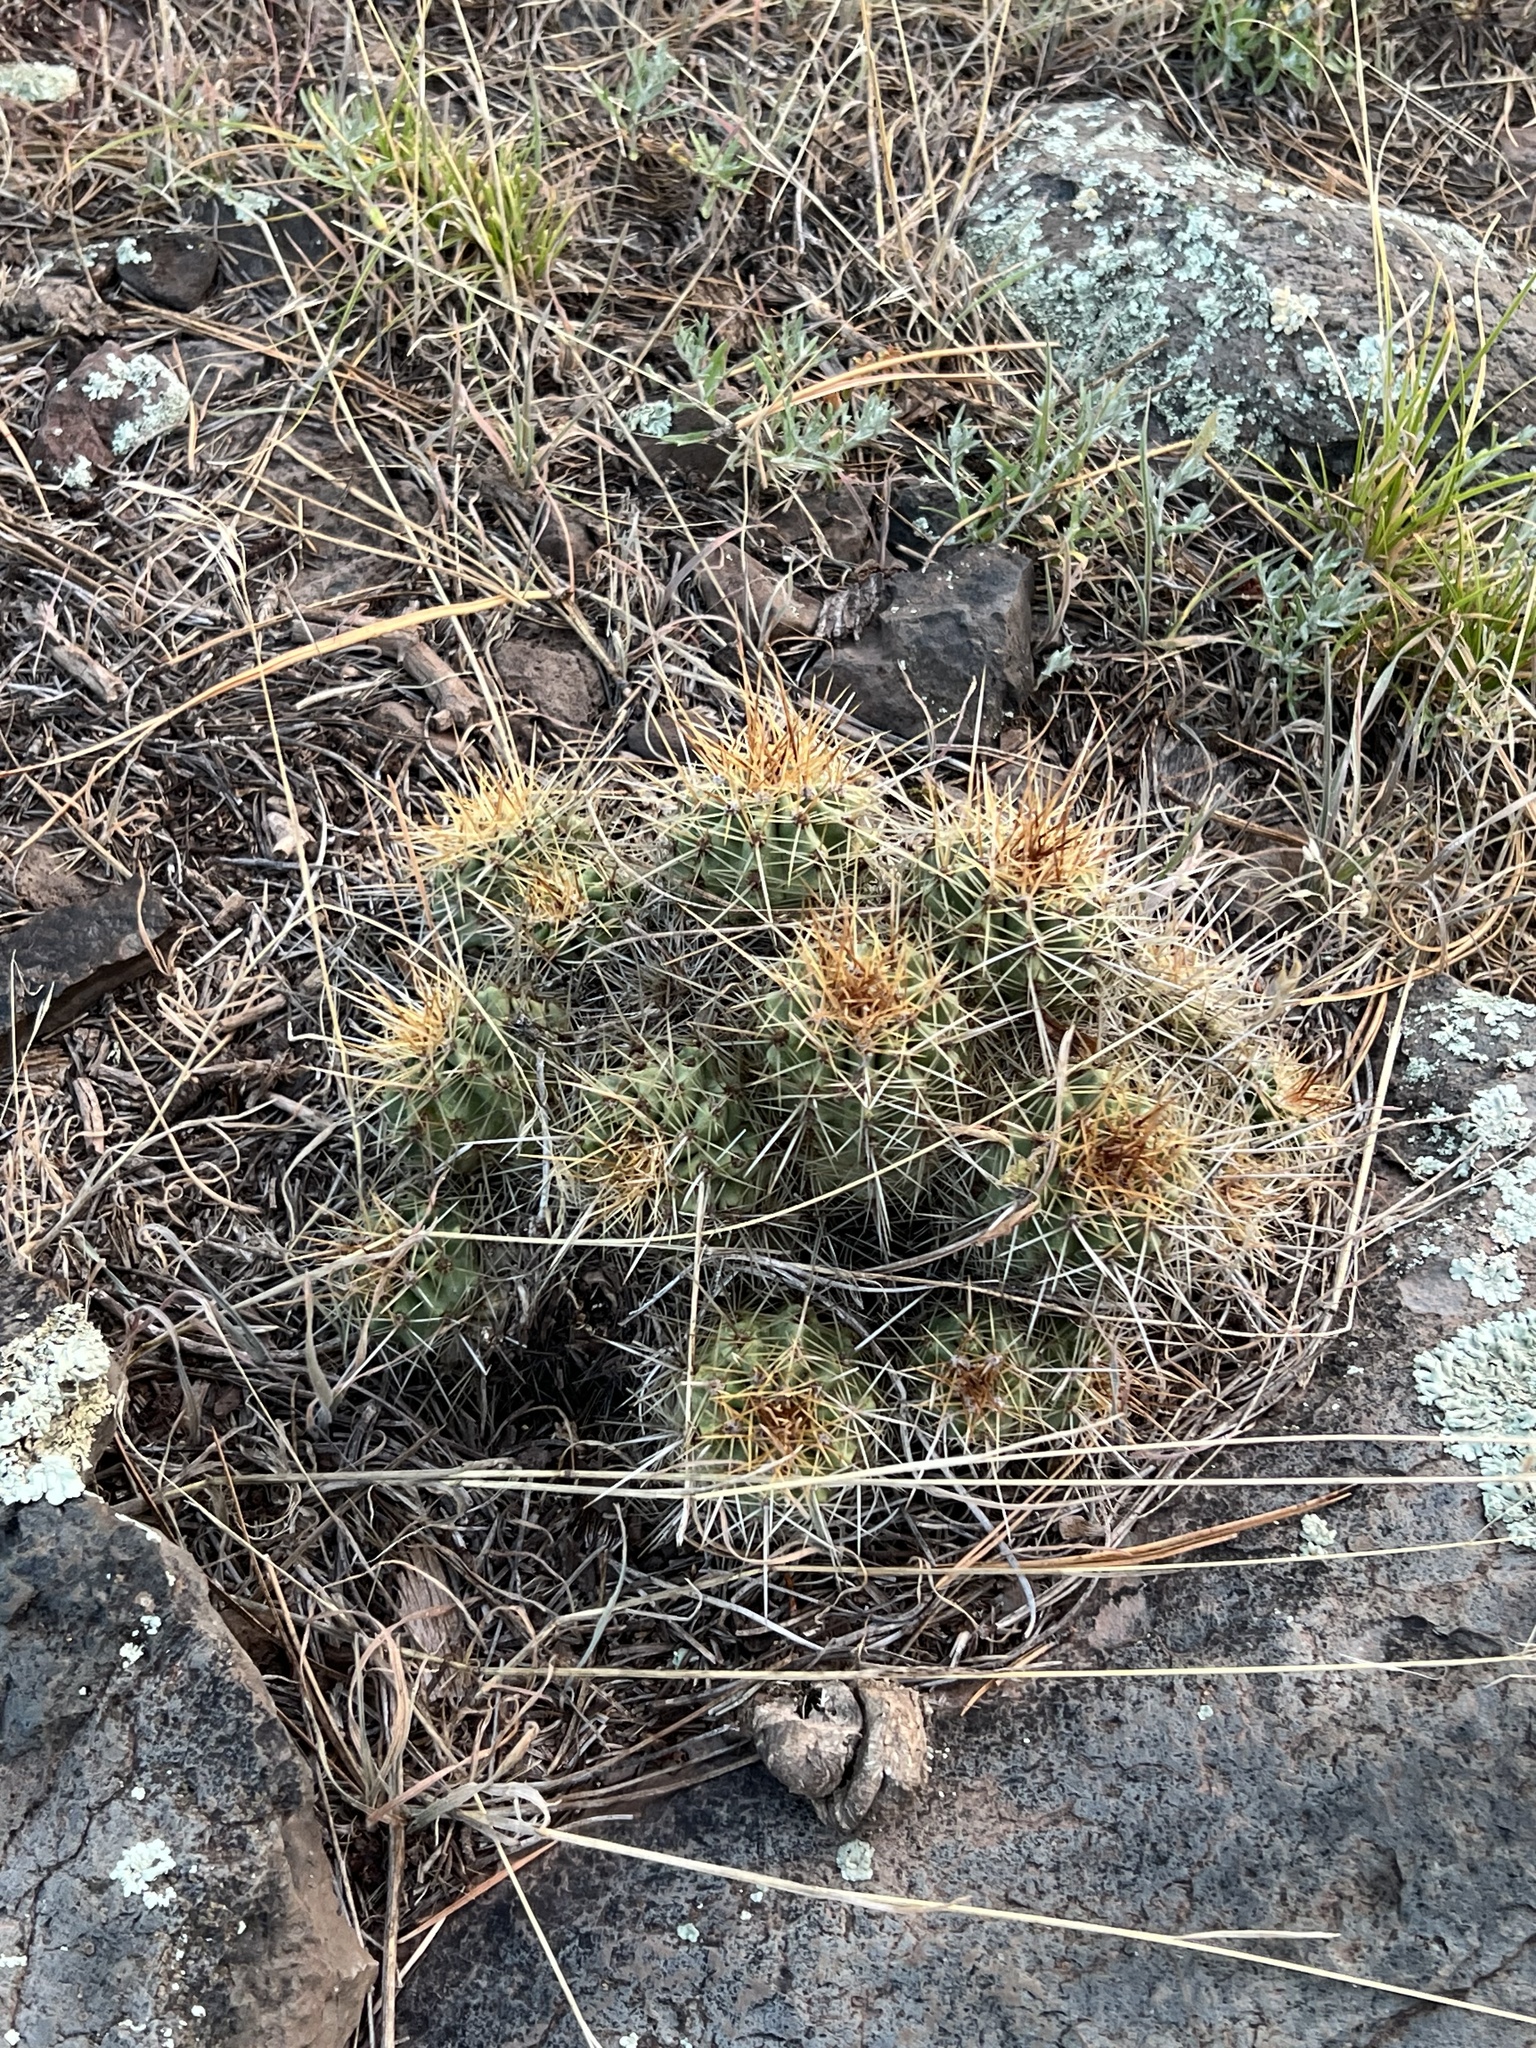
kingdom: Plantae
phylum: Tracheophyta
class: Magnoliopsida
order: Caryophyllales
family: Cactaceae
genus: Echinocereus
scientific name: Echinocereus bakeri
